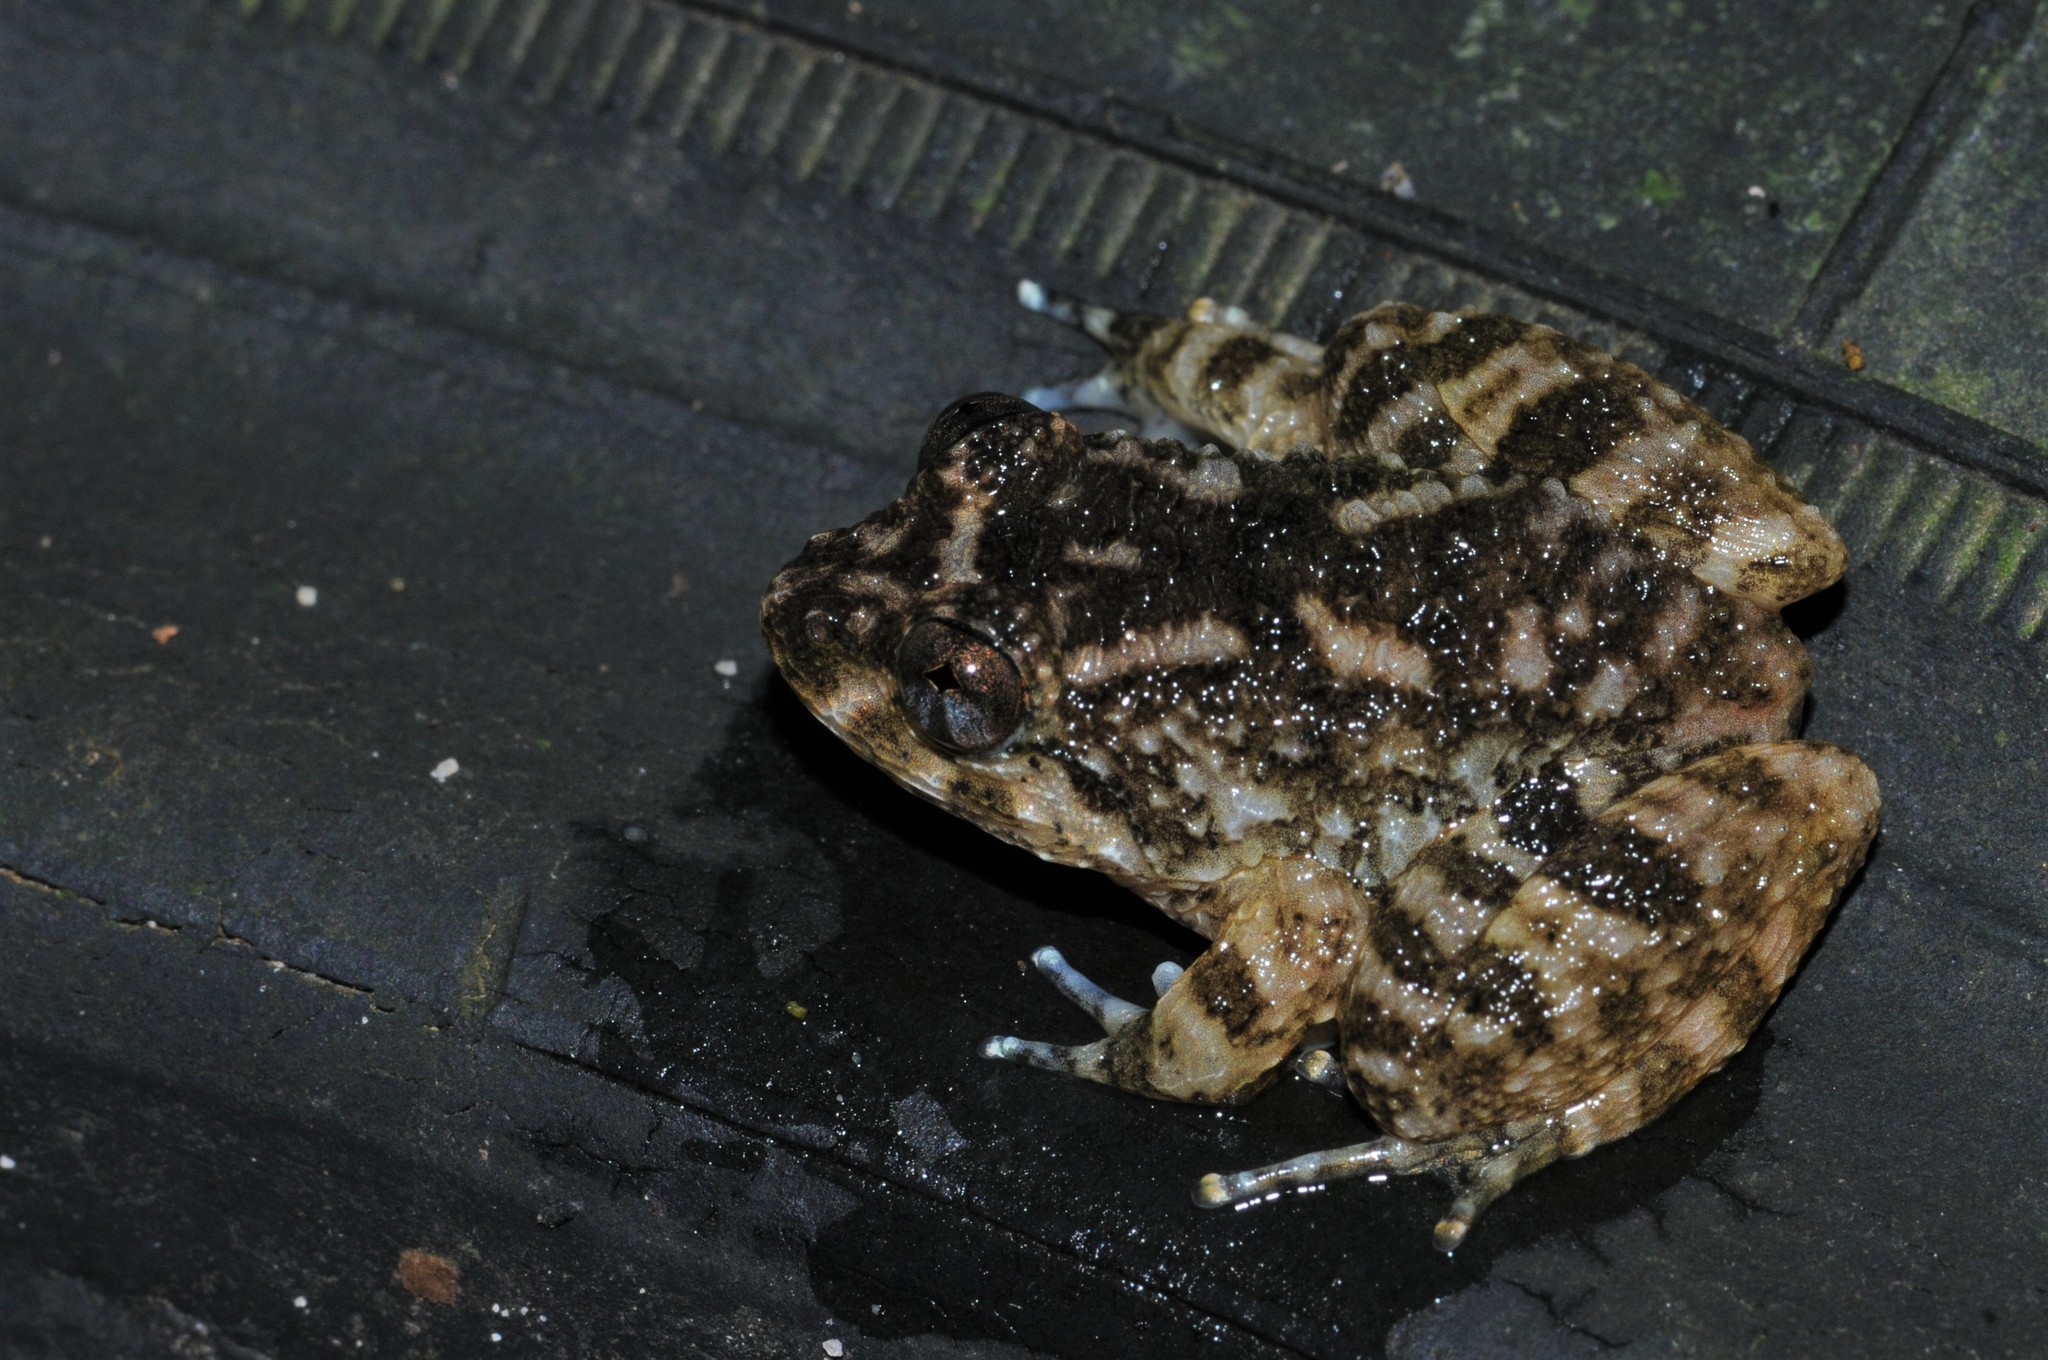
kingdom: Animalia
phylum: Chordata
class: Amphibia
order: Anura
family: Dicroglossidae
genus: Limnonectes
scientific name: Limnonectes deinodon
